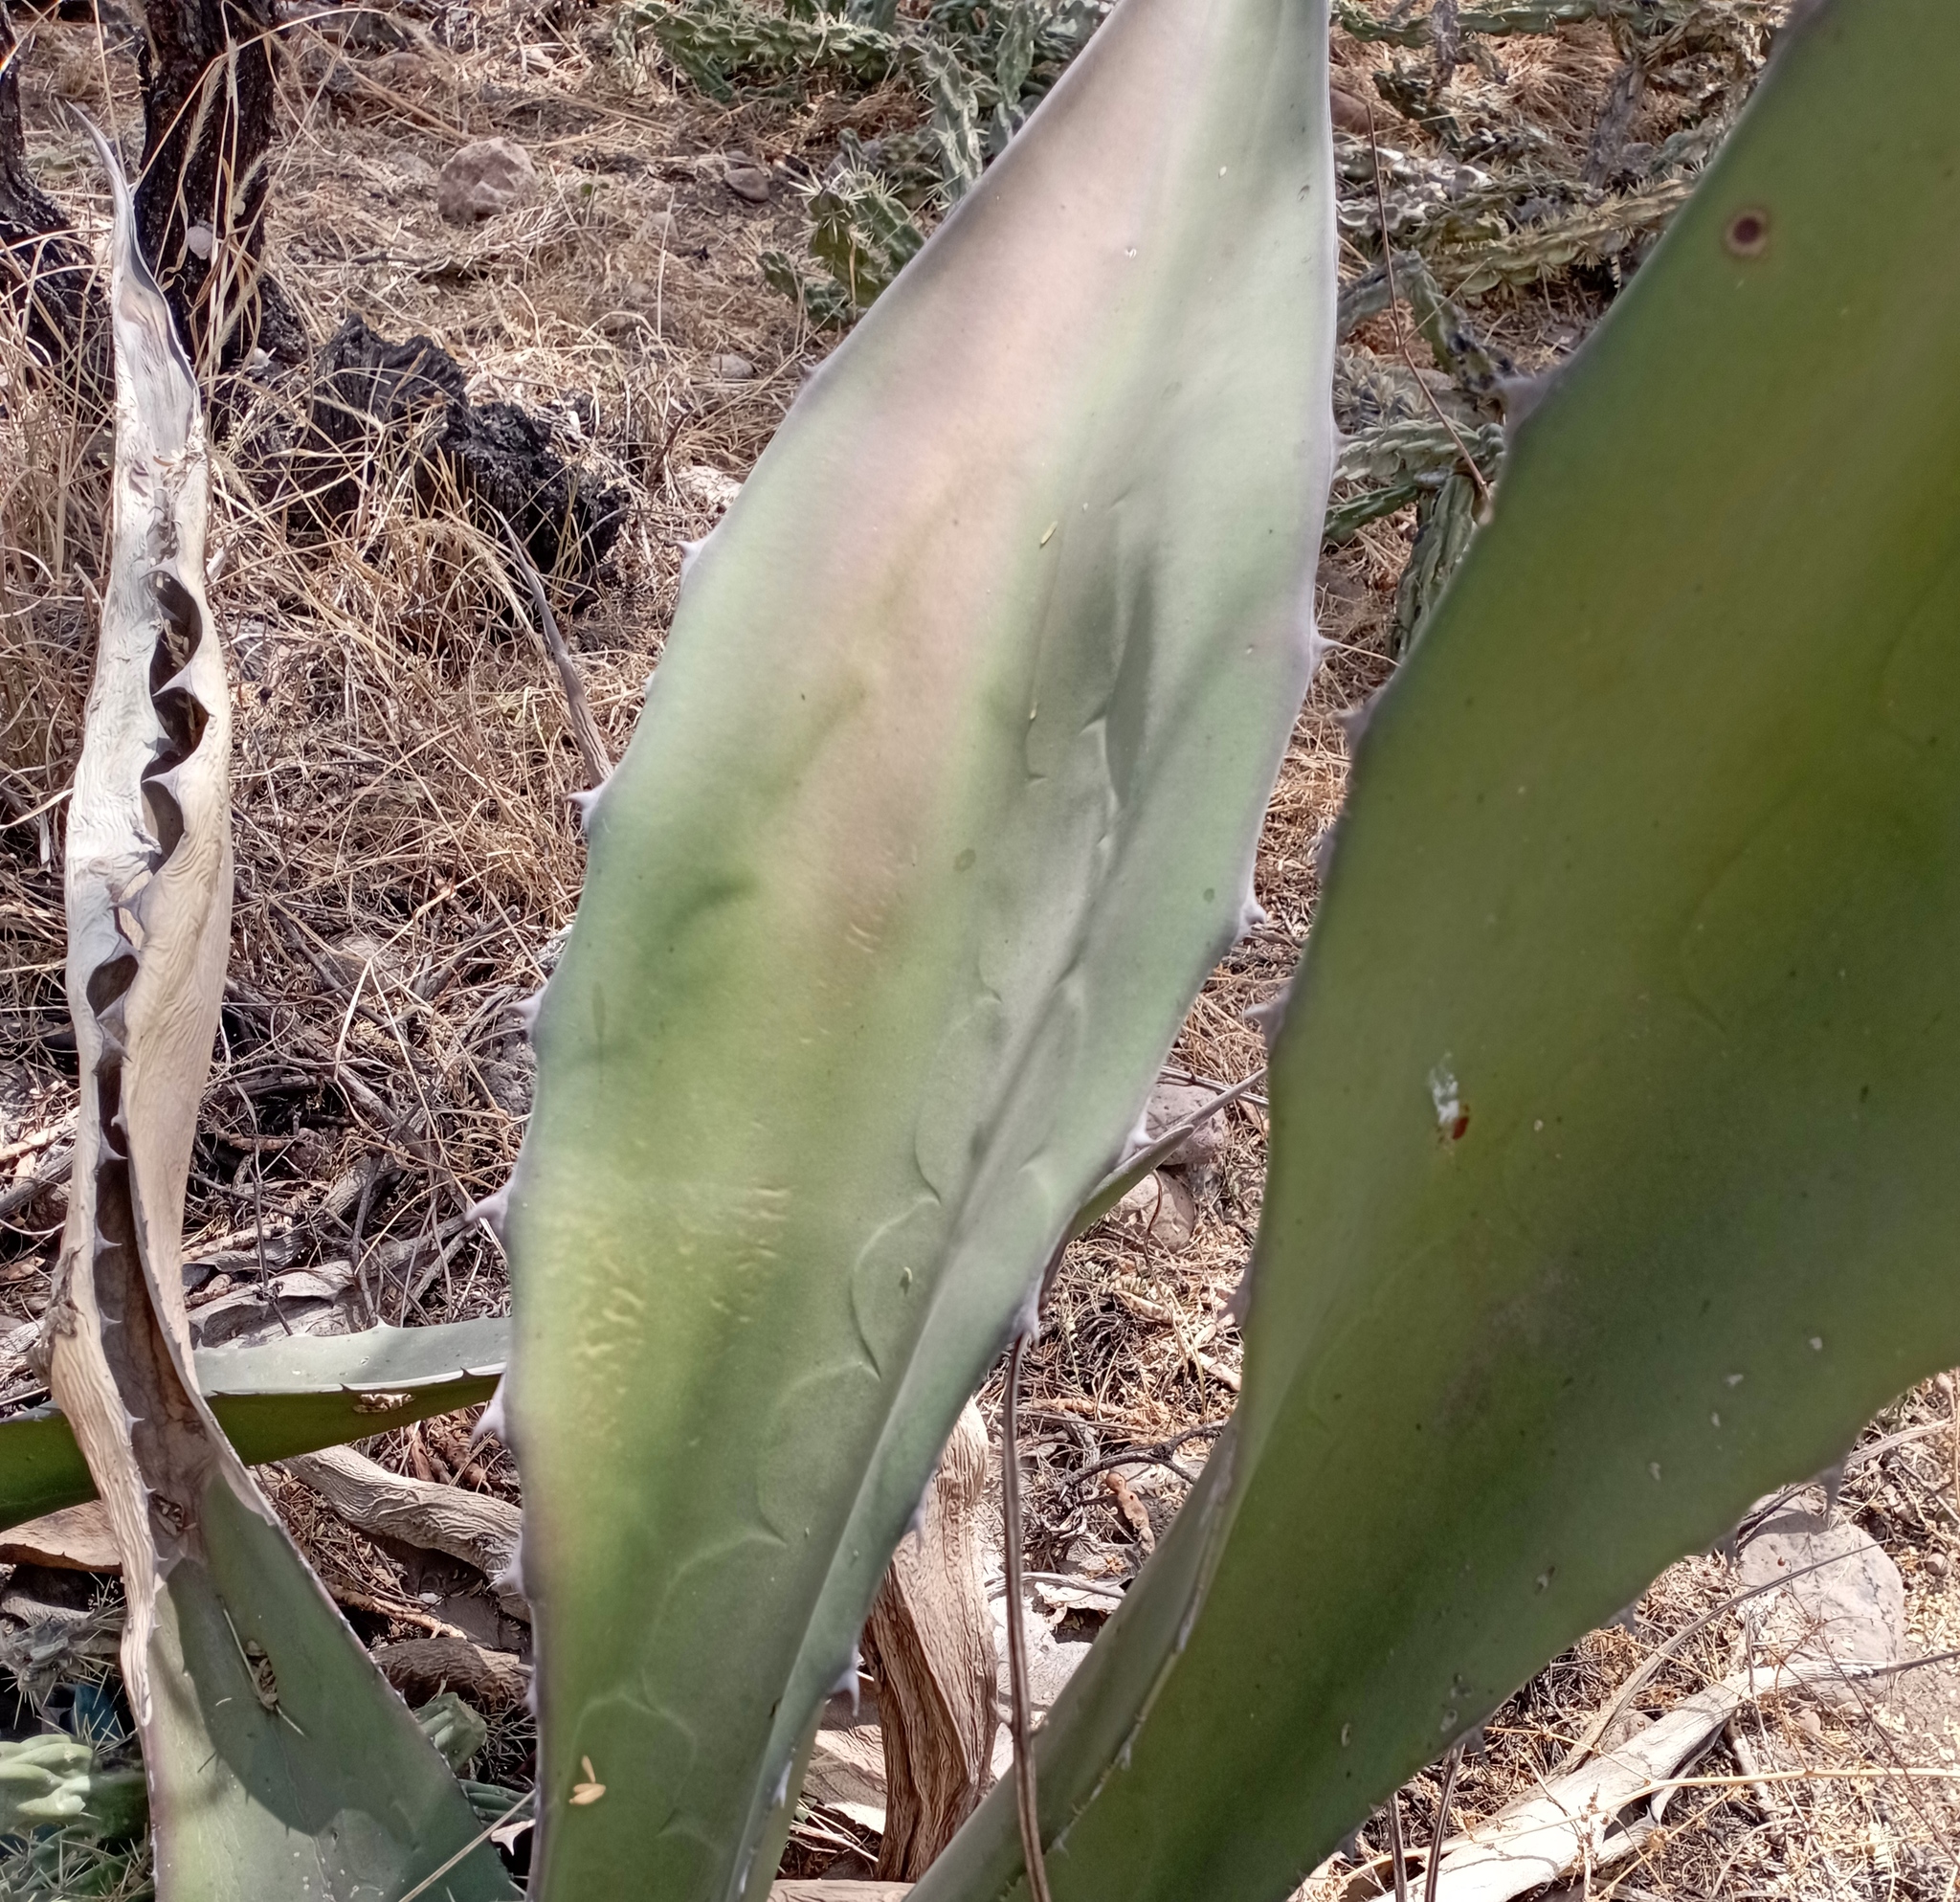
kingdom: Plantae
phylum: Tracheophyta
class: Liliopsida
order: Asparagales
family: Asparagaceae
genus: Agave
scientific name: Agave salmiana
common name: Pulque agave
